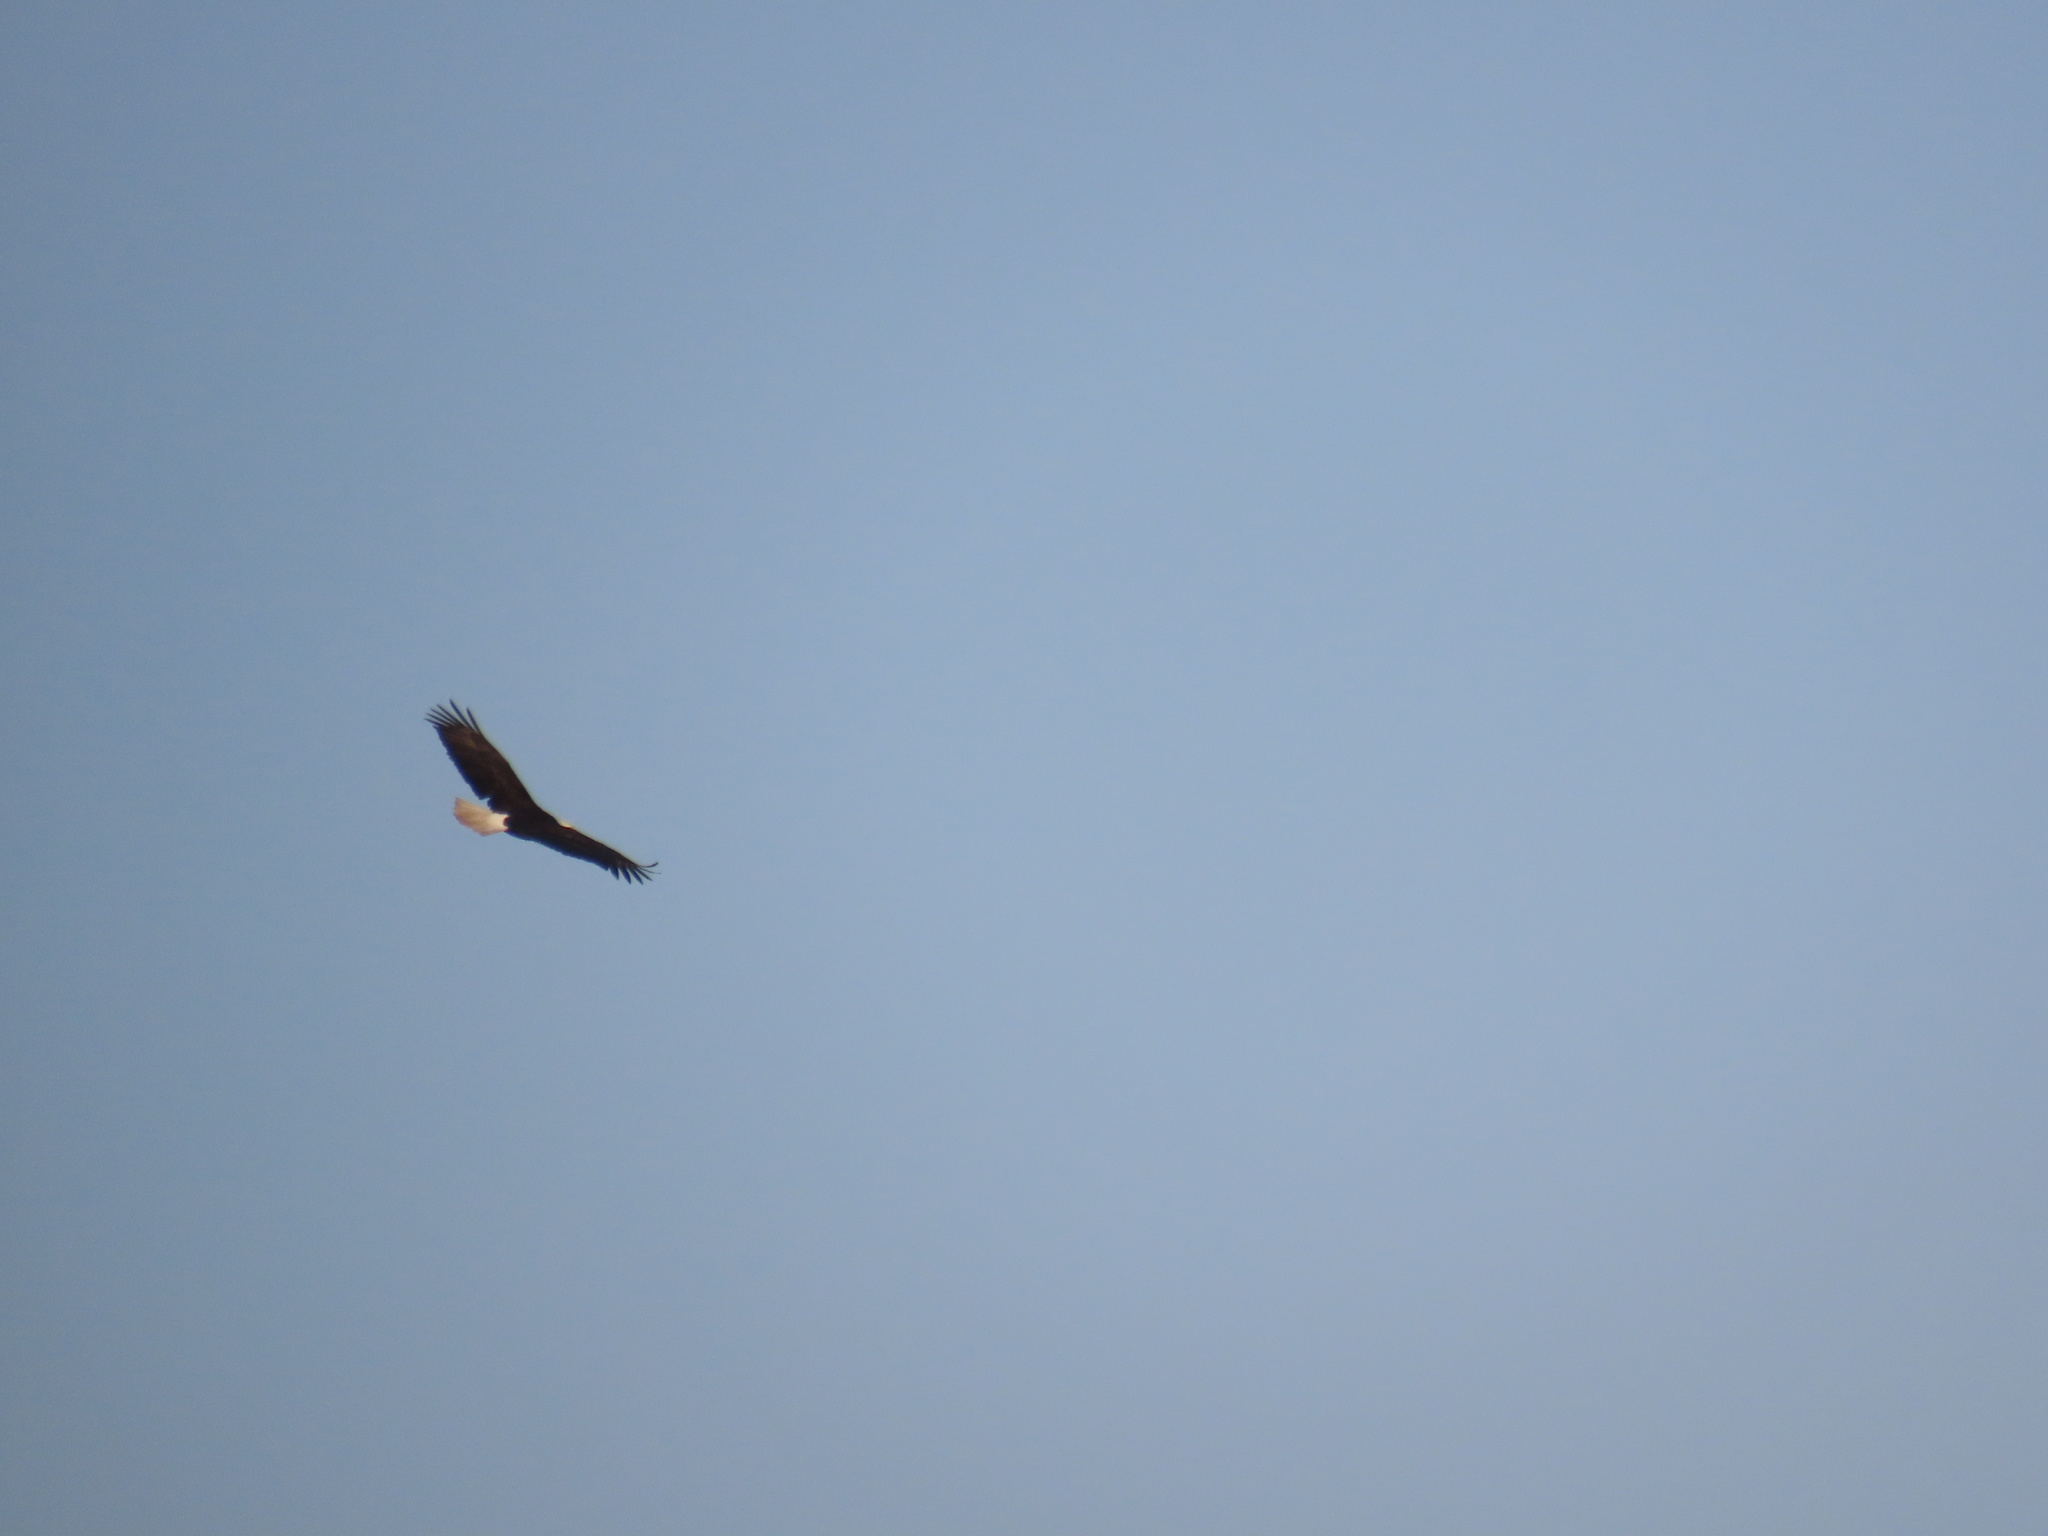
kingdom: Animalia
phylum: Chordata
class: Aves
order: Accipitriformes
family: Accipitridae
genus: Haliaeetus
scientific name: Haliaeetus leucocephalus
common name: Bald eagle
